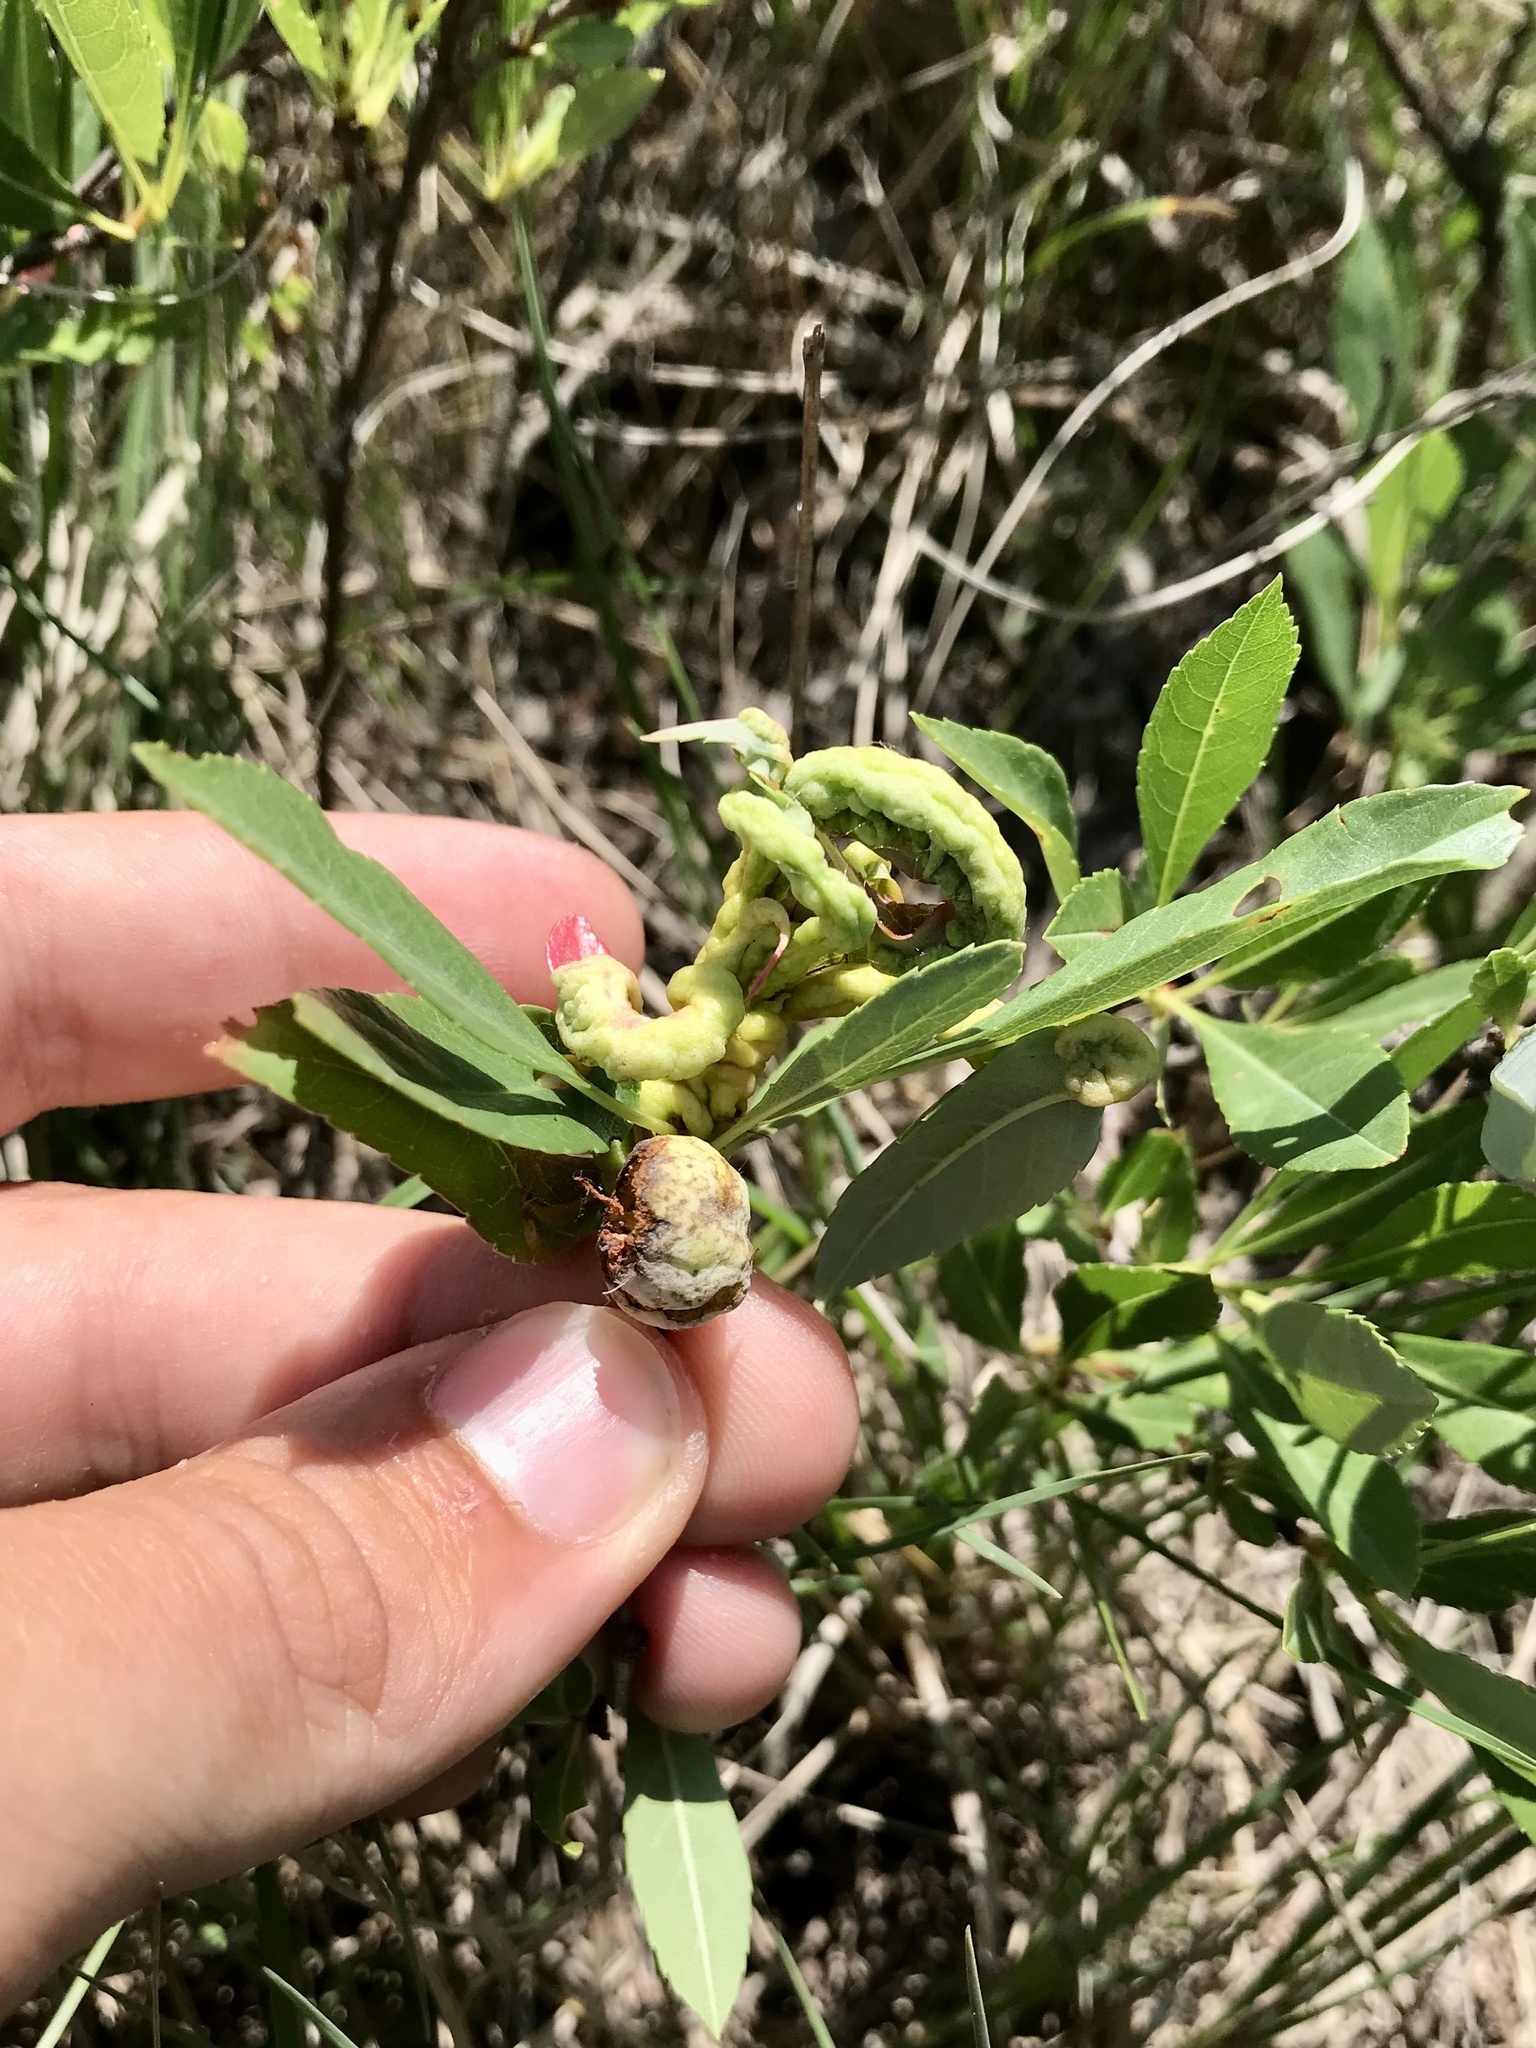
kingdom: Fungi
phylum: Ascomycota
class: Taphrinomycetes
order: Taphrinales
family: Taphrinaceae
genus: Taphrina
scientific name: Taphrina flavorubra
